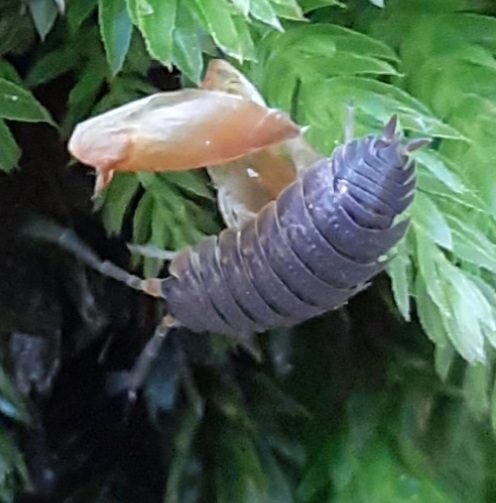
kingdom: Animalia
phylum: Arthropoda
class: Malacostraca
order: Isopoda
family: Porcellionidae
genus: Porcellio
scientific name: Porcellio scaber
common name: Common rough woodlouse
